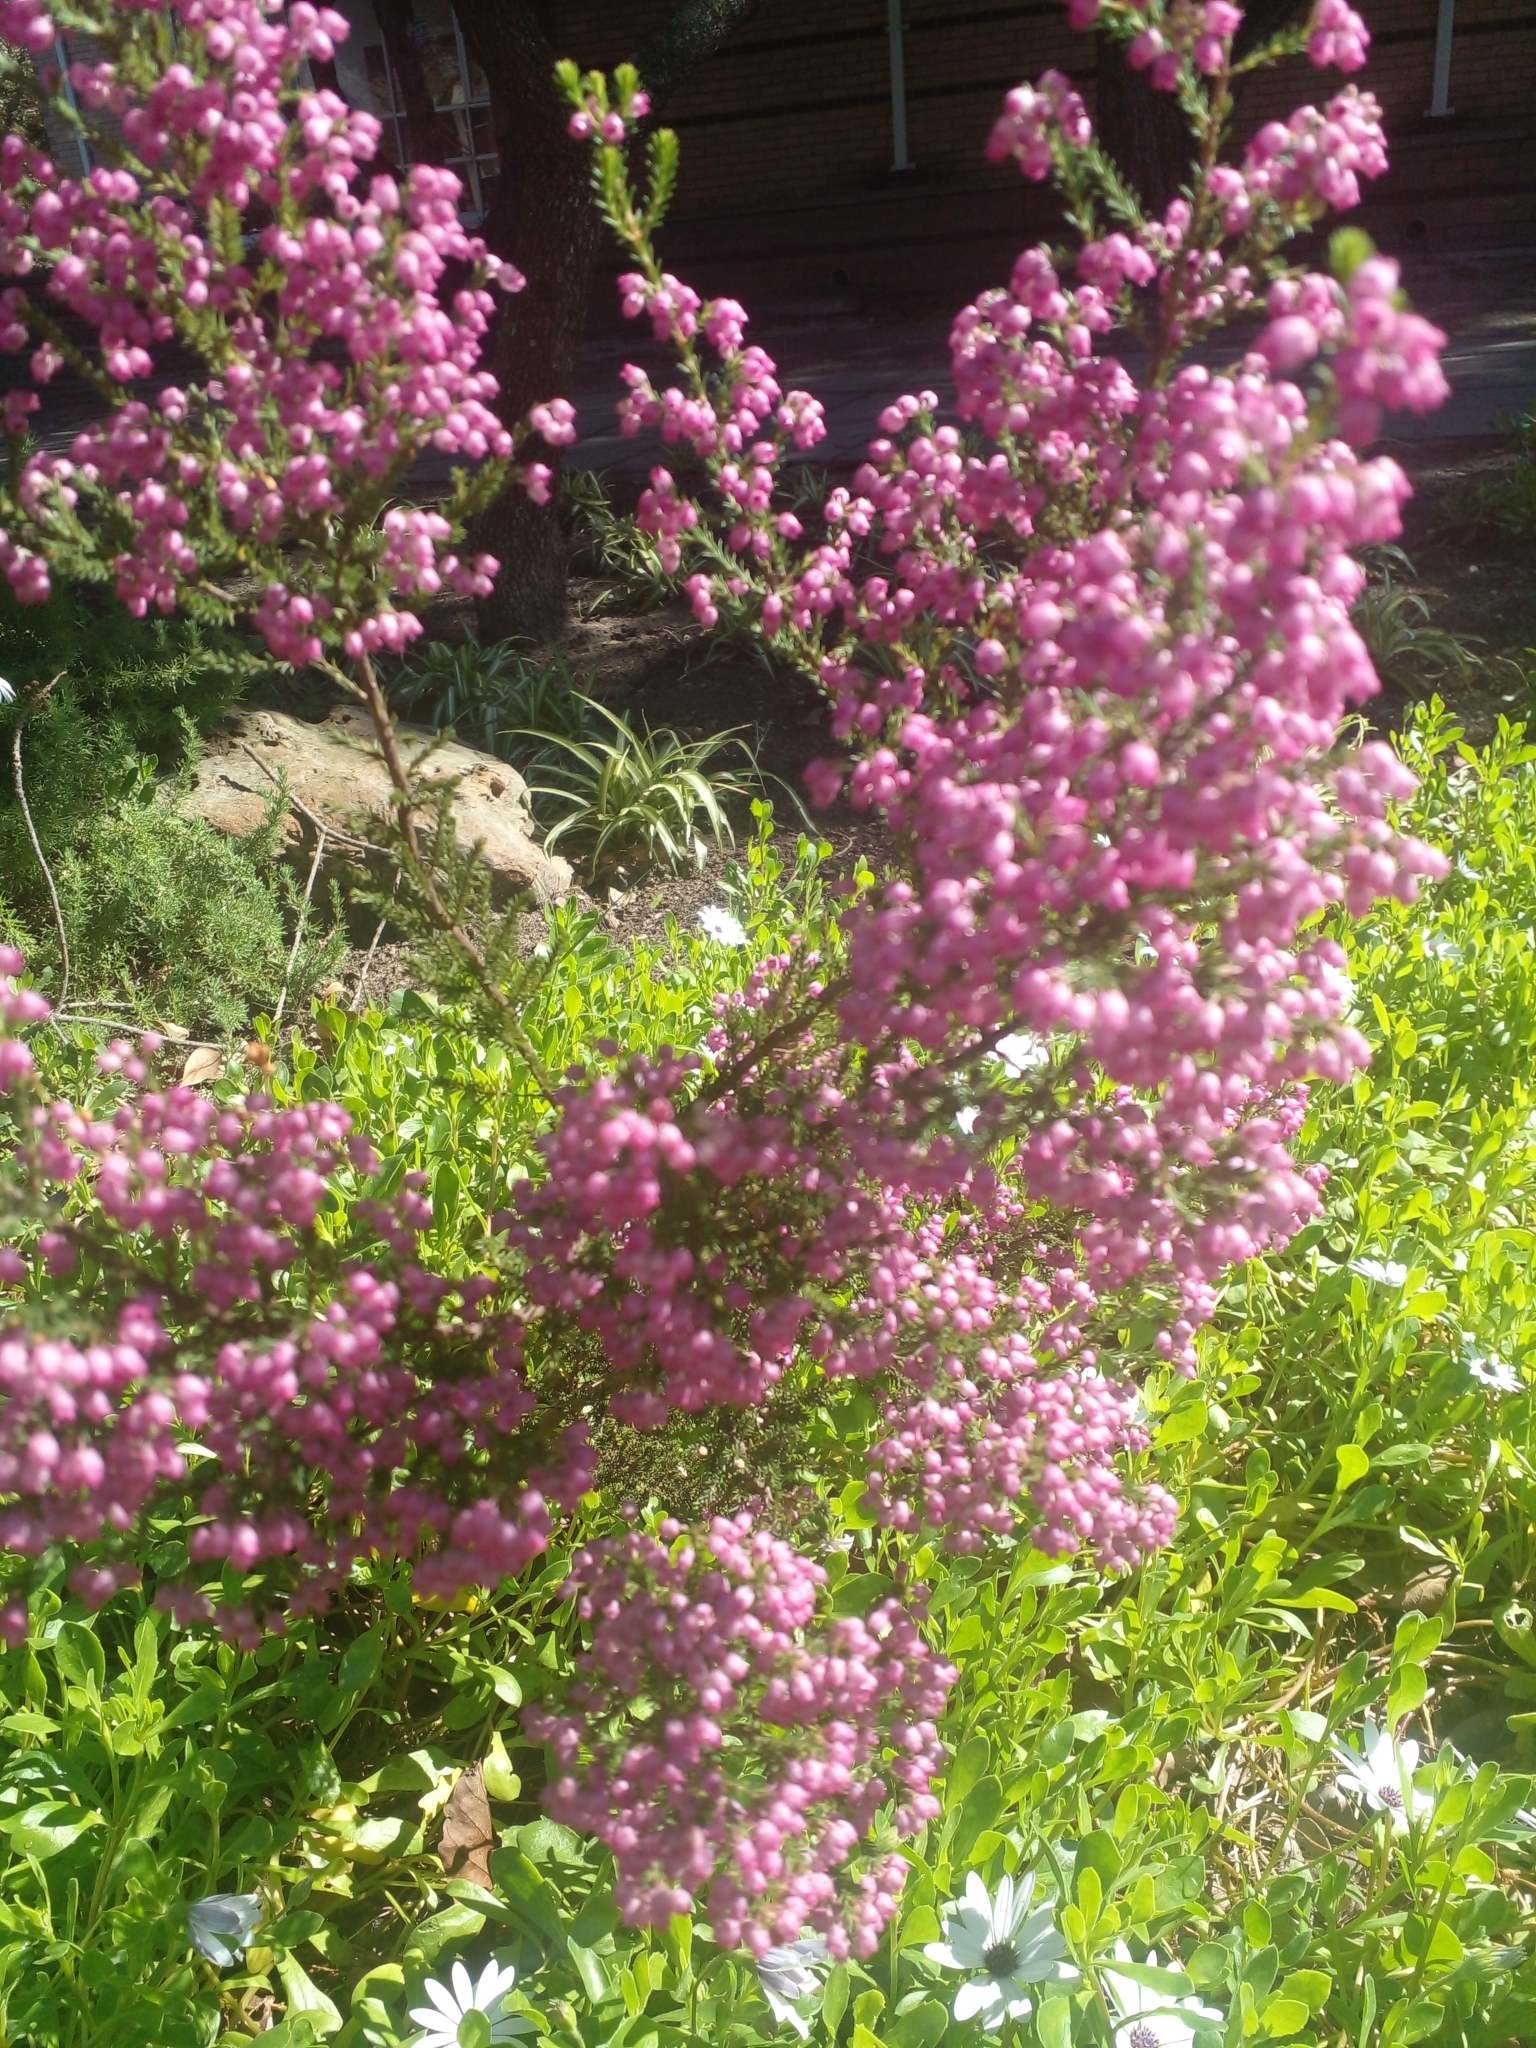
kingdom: Plantae
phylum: Tracheophyta
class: Magnoliopsida
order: Ericales
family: Ericaceae
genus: Erica
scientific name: Erica multumbellifera
